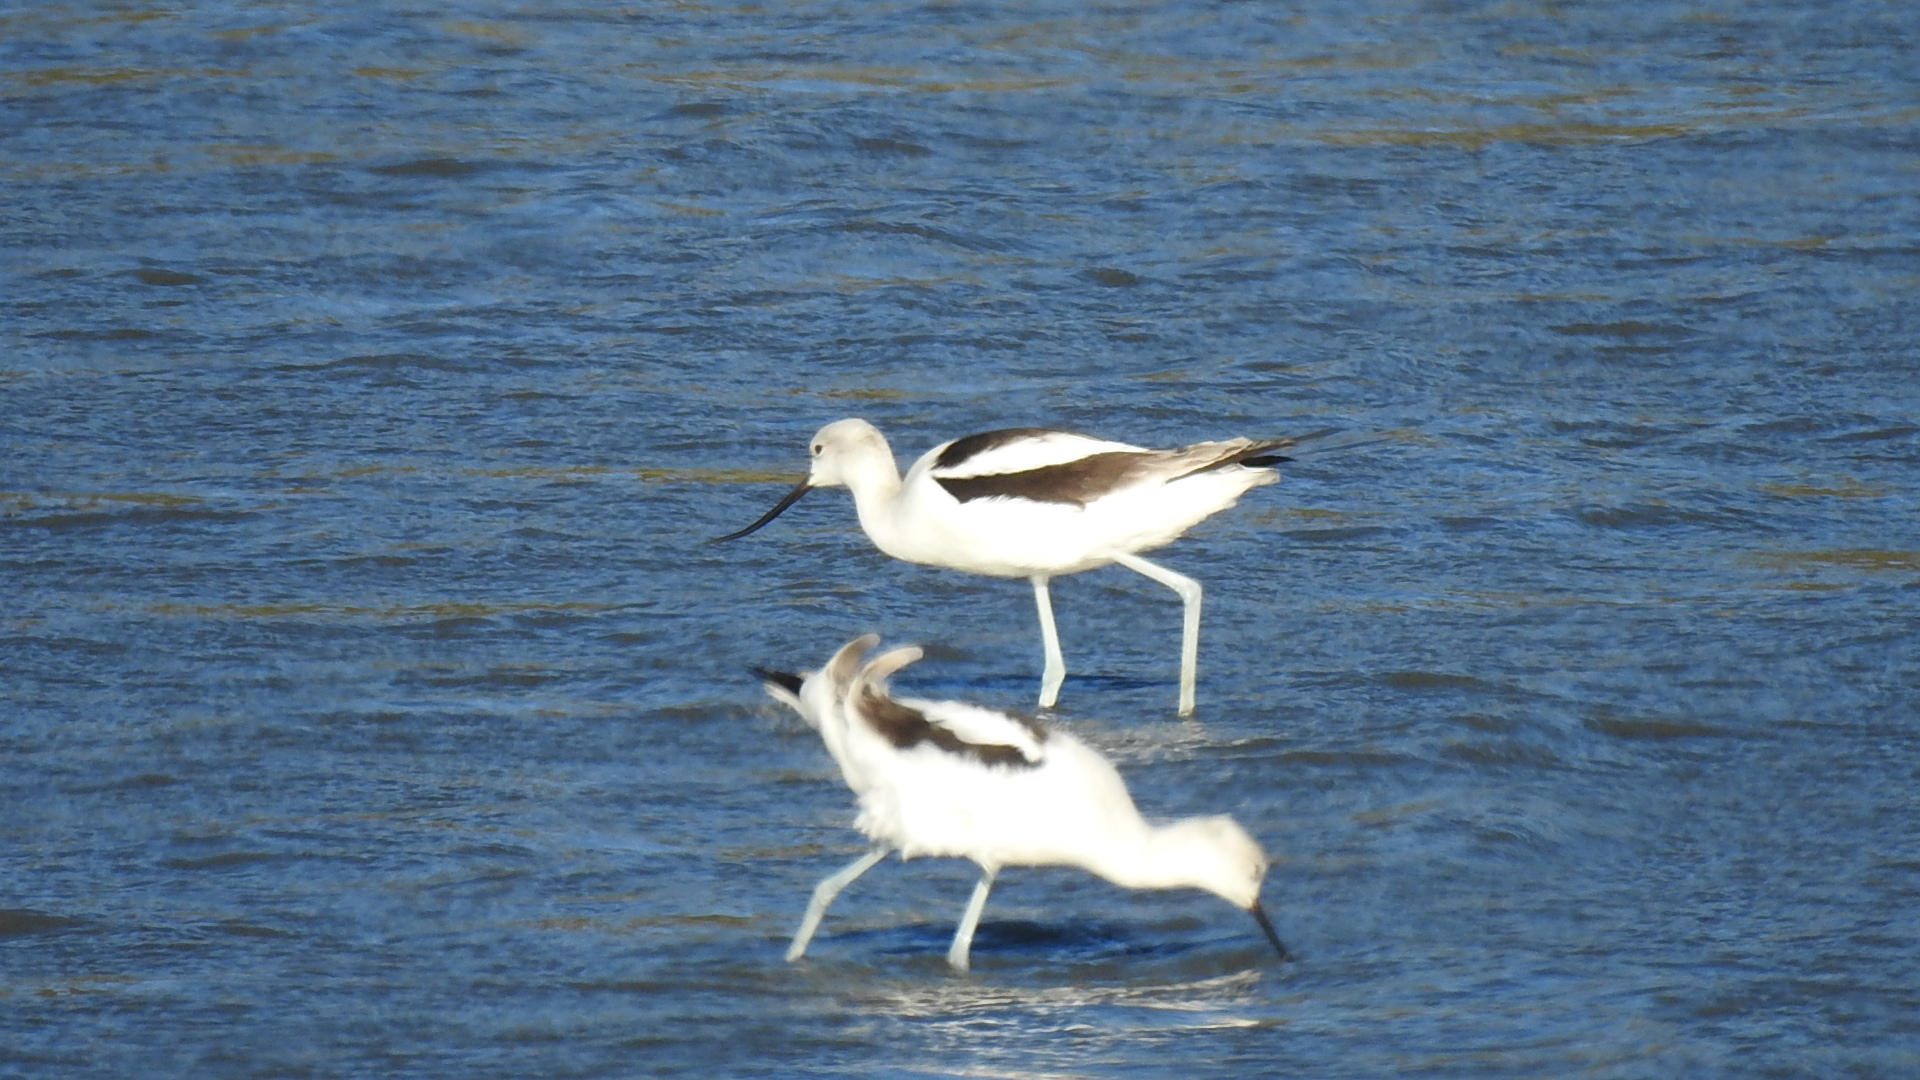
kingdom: Animalia
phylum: Chordata
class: Aves
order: Charadriiformes
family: Recurvirostridae
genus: Recurvirostra
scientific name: Recurvirostra americana
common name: American avocet
